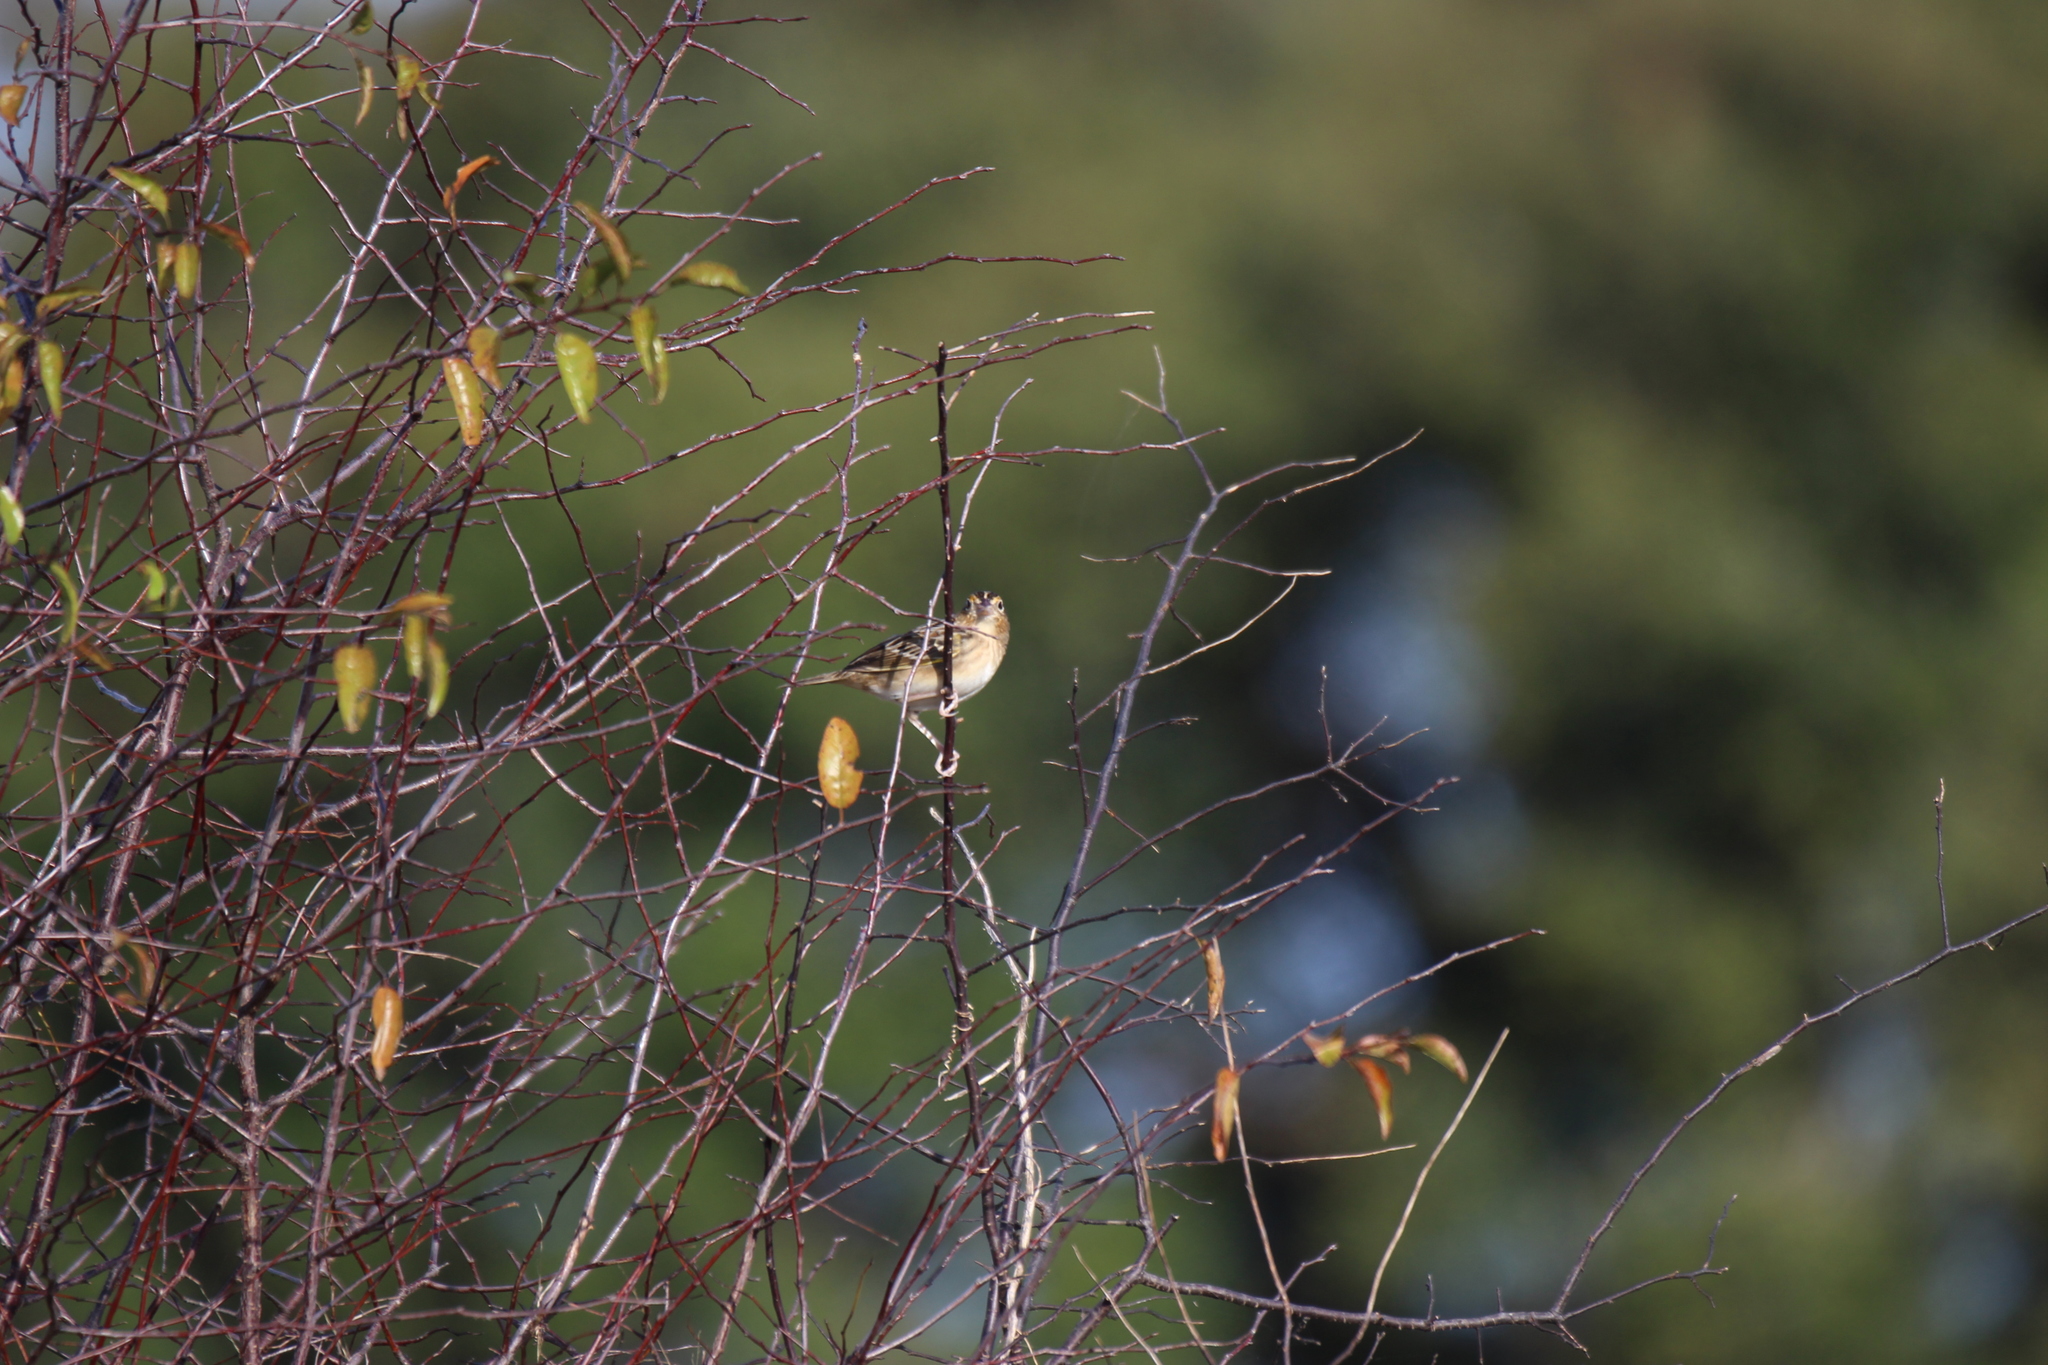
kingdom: Animalia
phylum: Chordata
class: Aves
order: Passeriformes
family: Passerellidae
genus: Ammodramus
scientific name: Ammodramus savannarum
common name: Grasshopper sparrow
